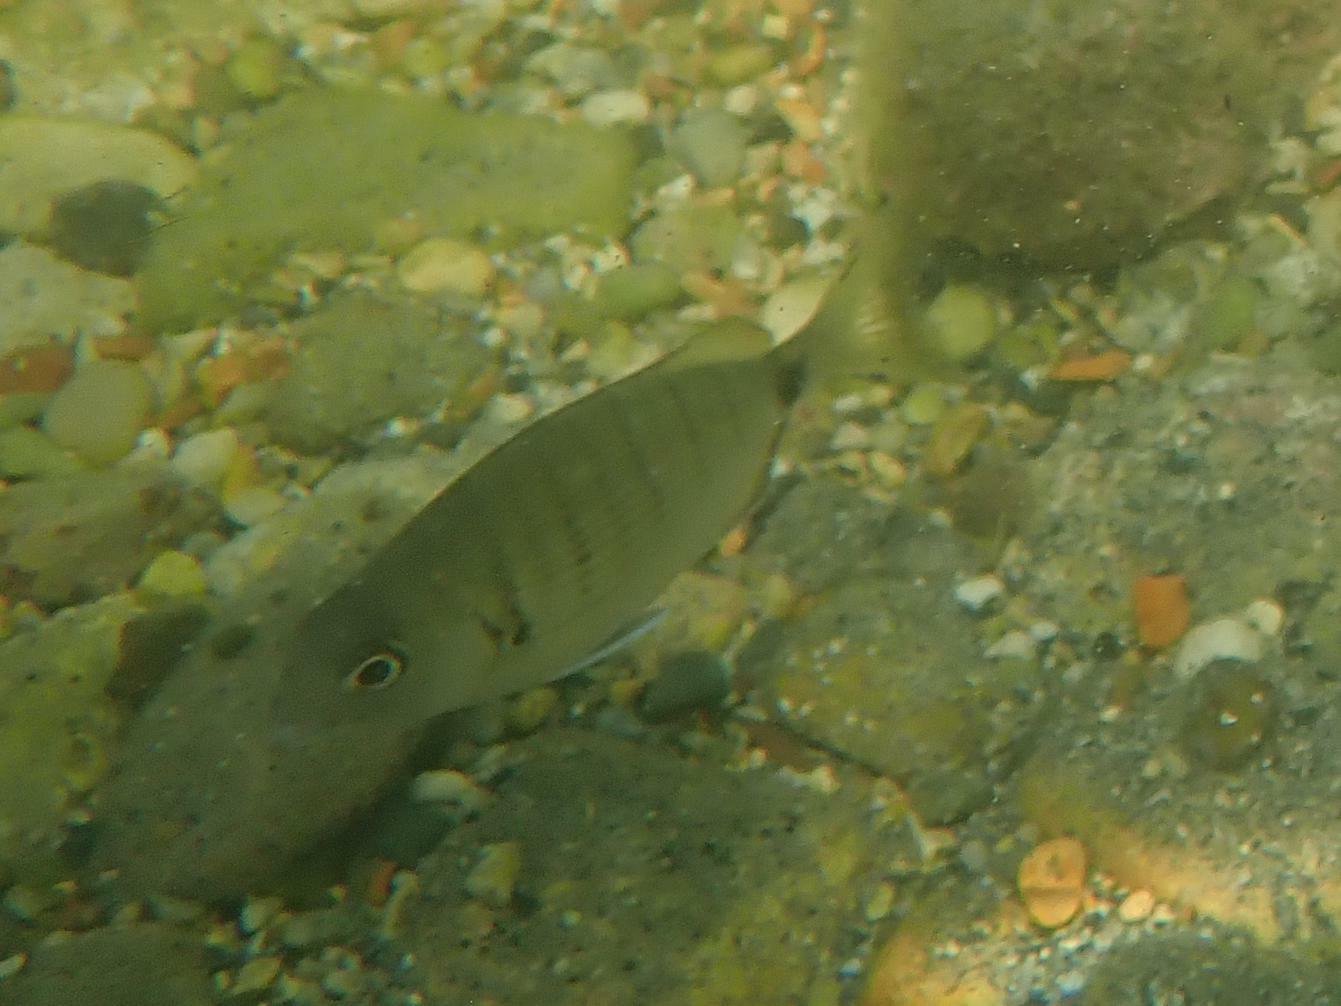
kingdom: Animalia
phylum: Chordata
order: Perciformes
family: Sparidae
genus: Diplodus
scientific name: Diplodus sargus
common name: White seabream
